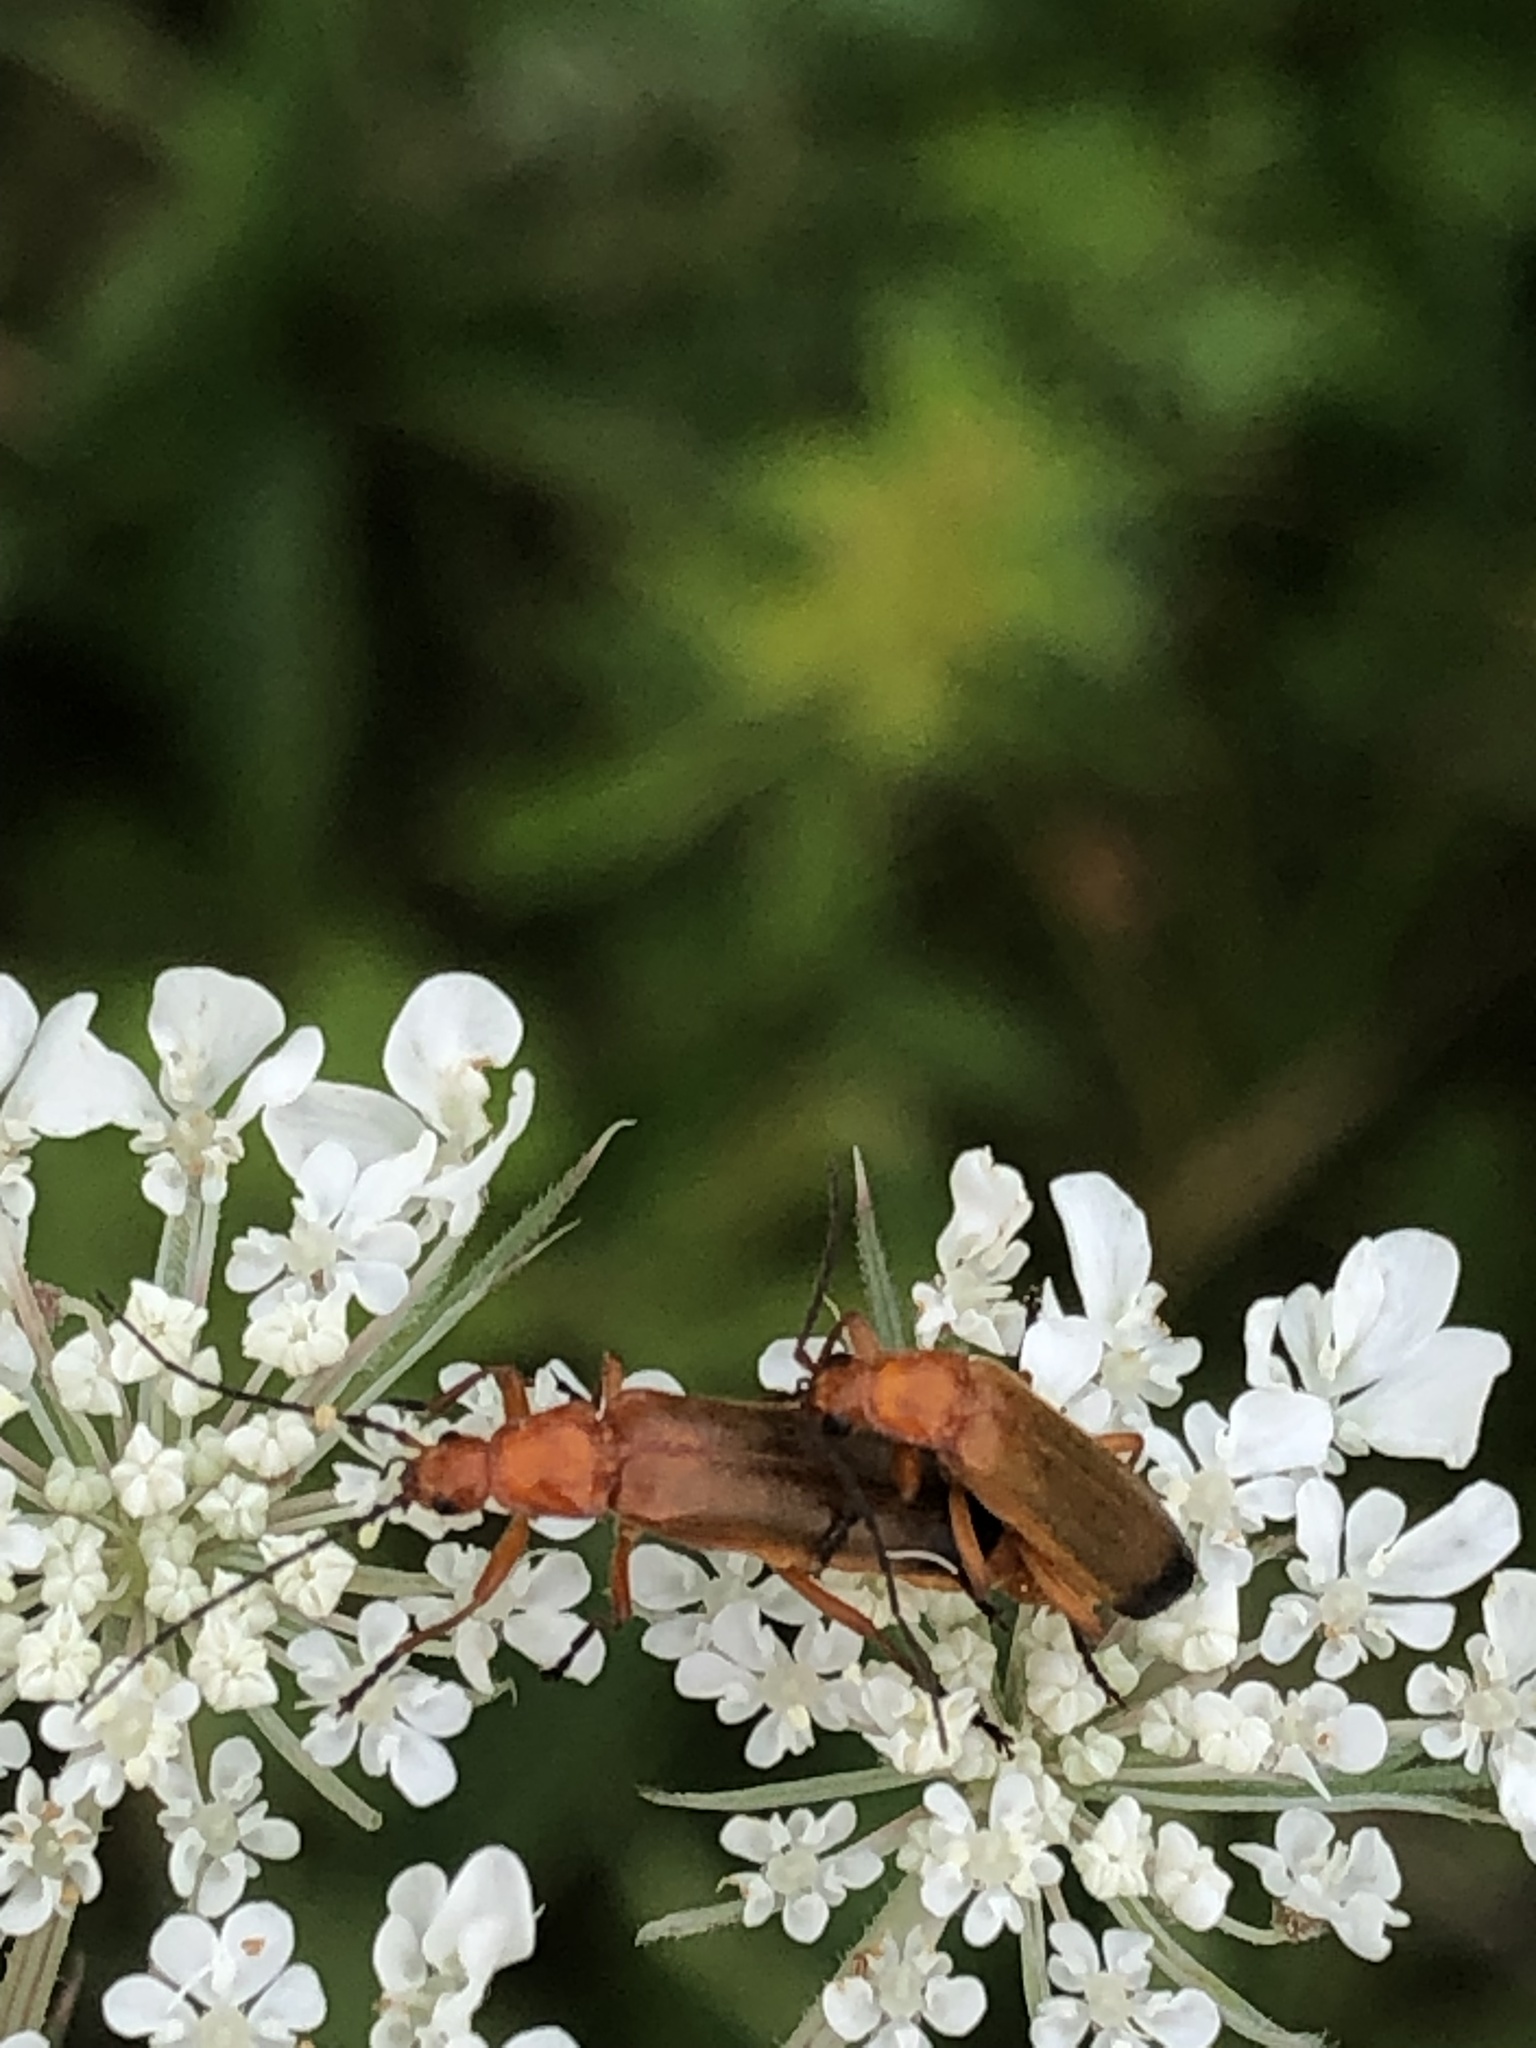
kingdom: Animalia
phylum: Arthropoda
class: Insecta
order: Coleoptera
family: Cantharidae
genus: Rhagonycha
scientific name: Rhagonycha fulva
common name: Common red soldier beetle
